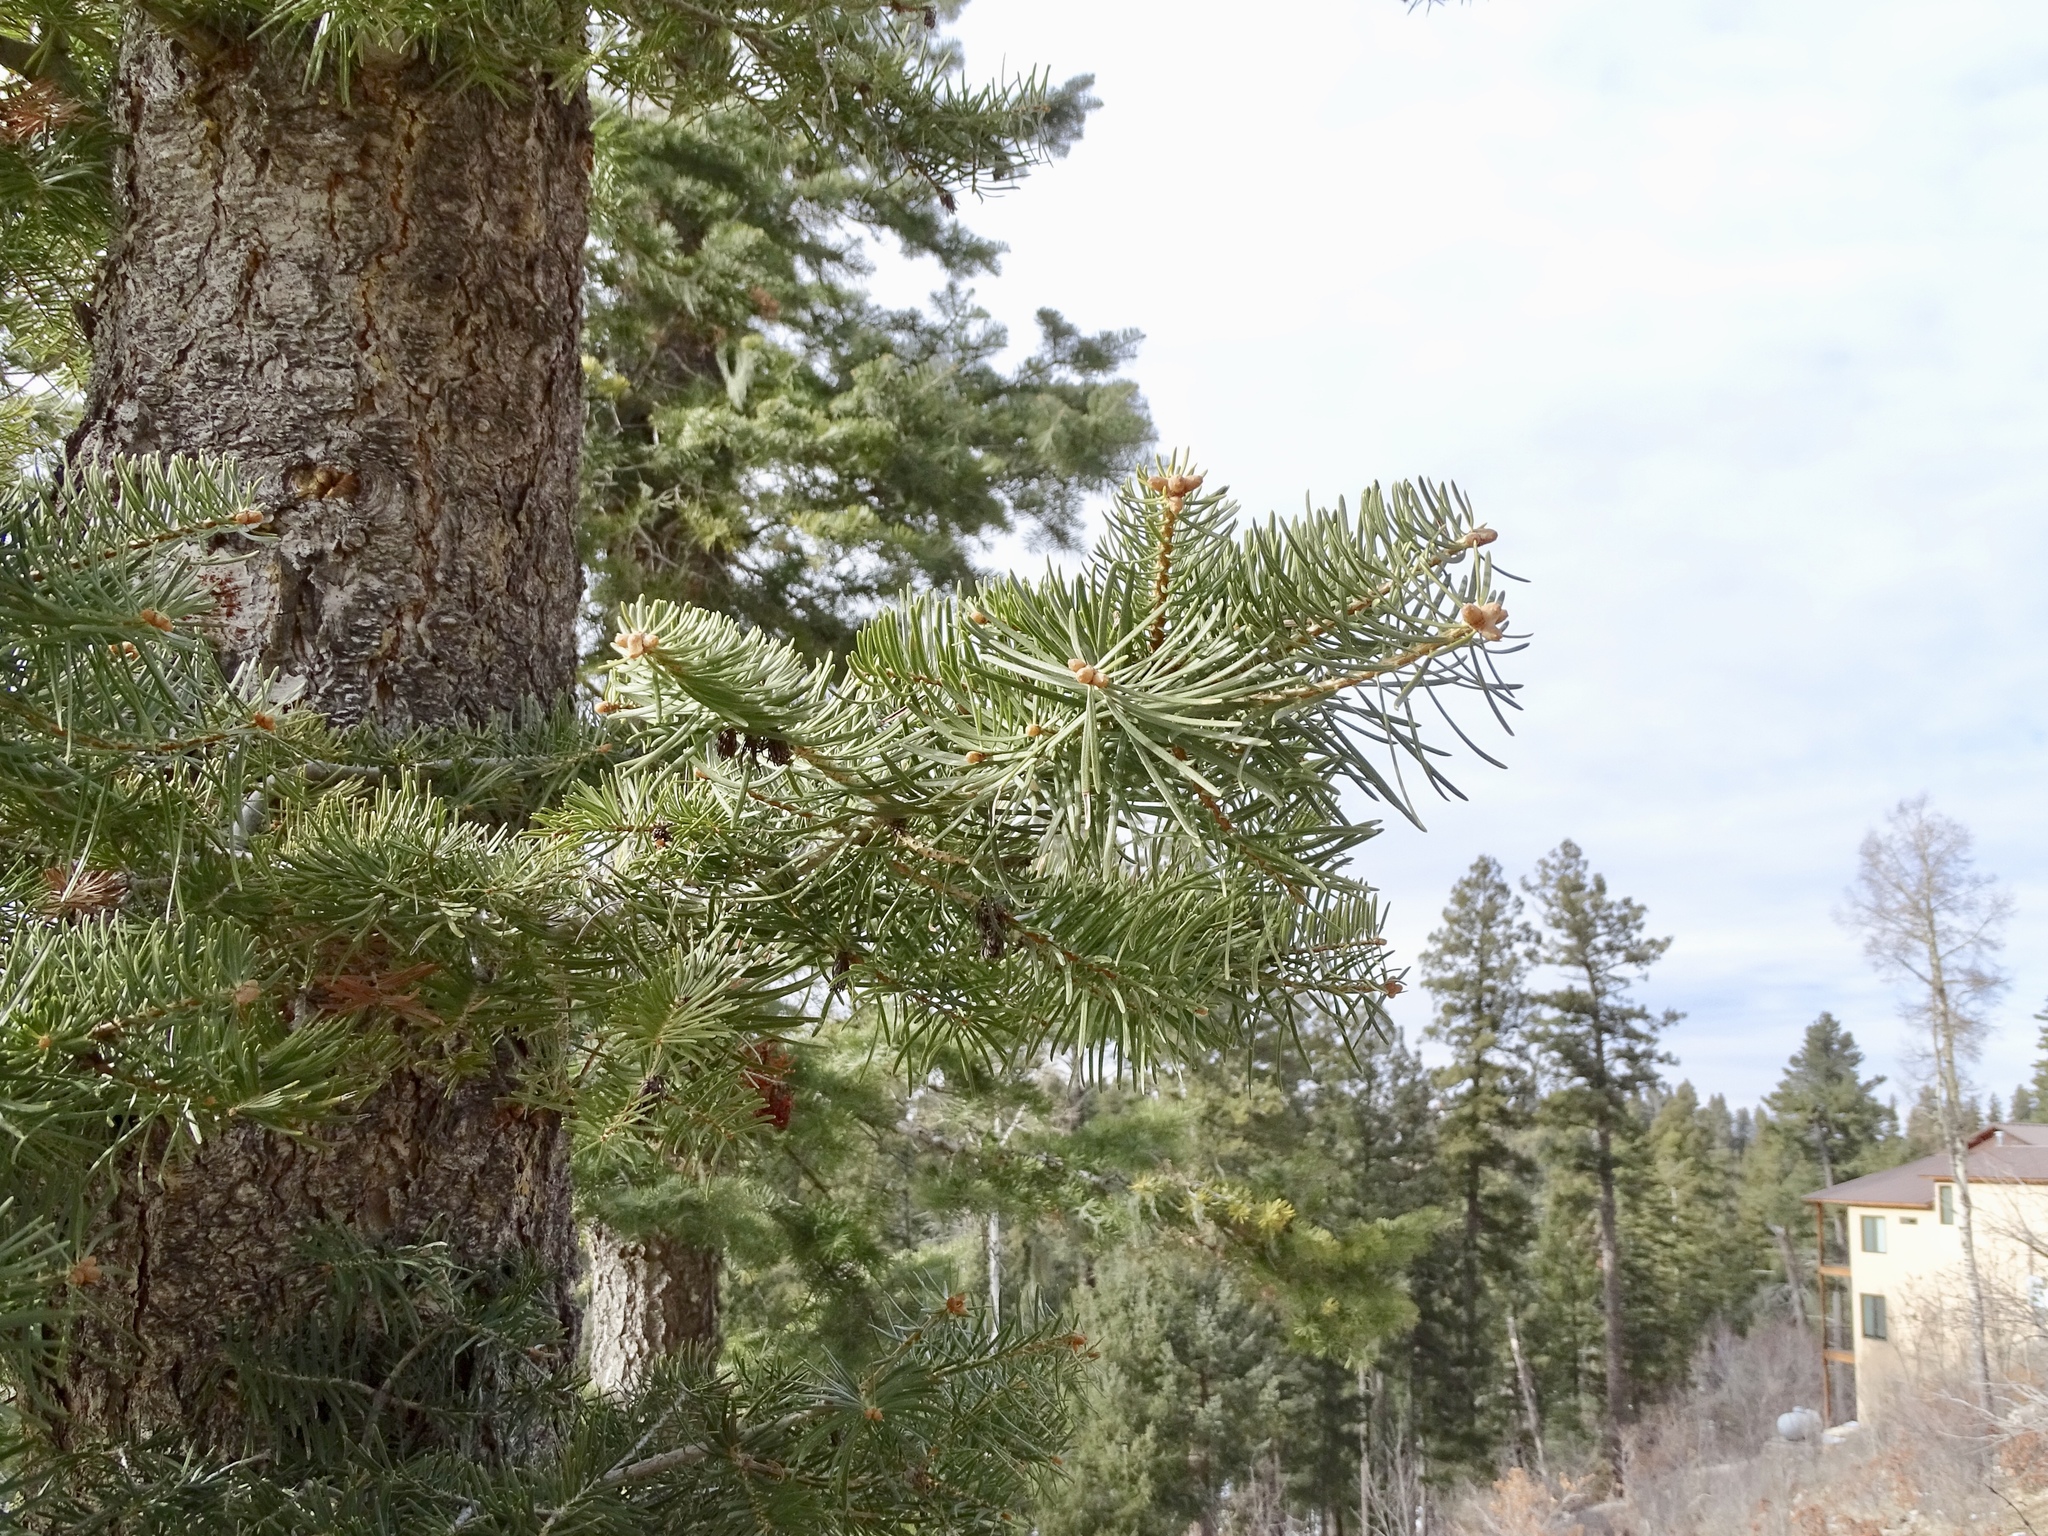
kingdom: Plantae
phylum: Tracheophyta
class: Pinopsida
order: Pinales
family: Pinaceae
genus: Abies
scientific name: Abies concolor
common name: Colorado fir
